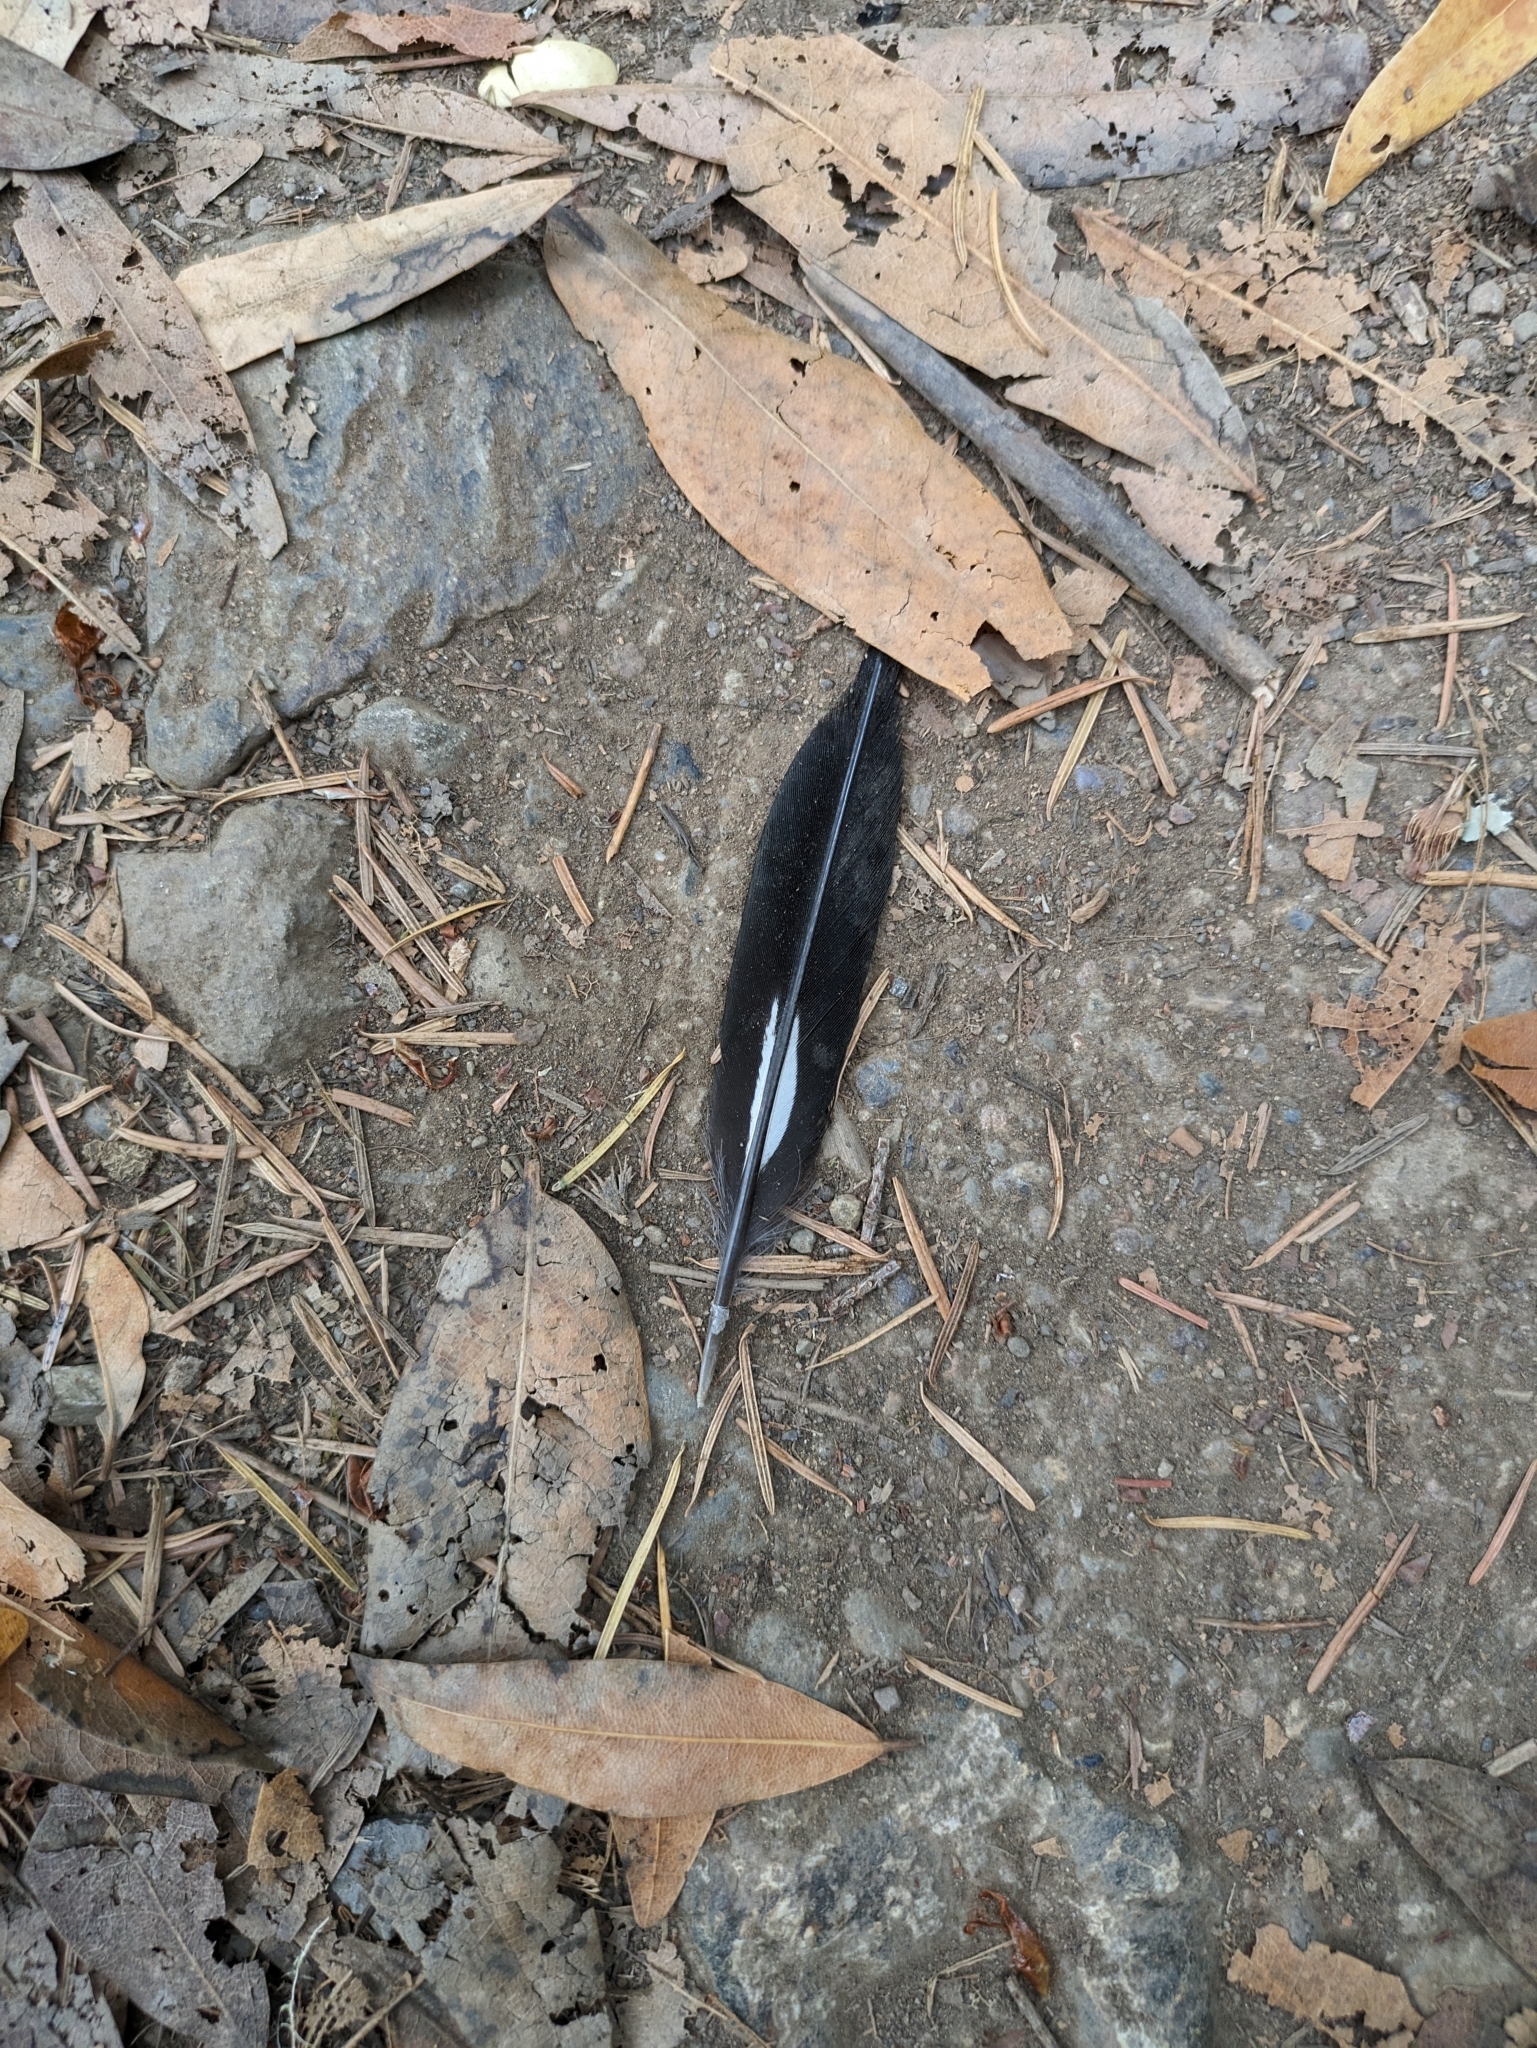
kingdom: Animalia
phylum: Chordata
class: Aves
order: Piciformes
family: Picidae
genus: Melanerpes
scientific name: Melanerpes formicivorus
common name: Acorn woodpecker
